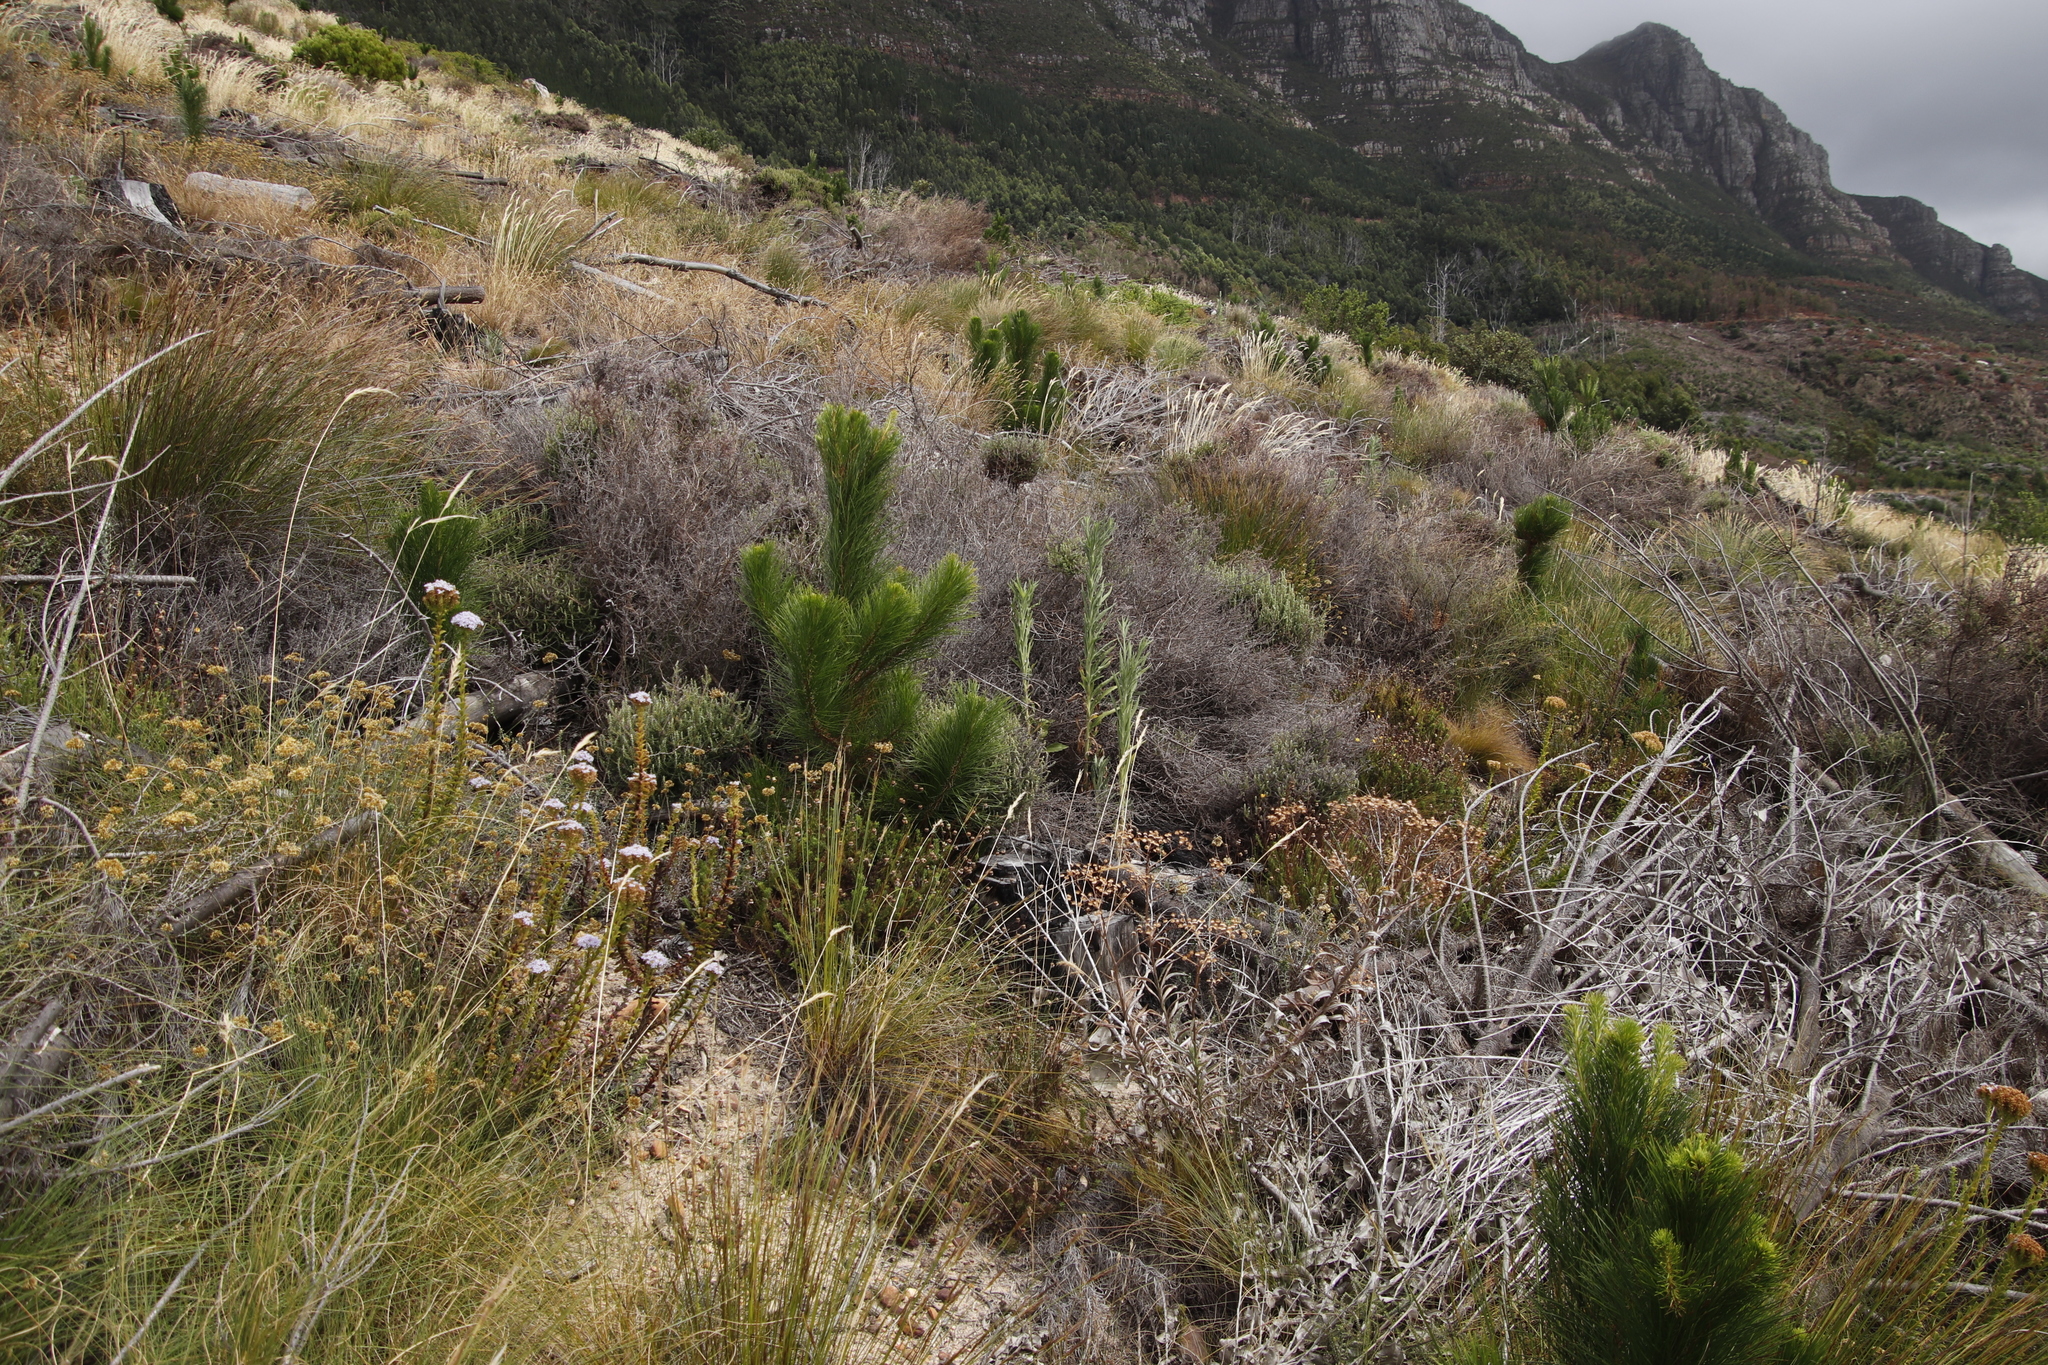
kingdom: Plantae
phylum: Tracheophyta
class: Pinopsida
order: Pinales
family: Pinaceae
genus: Pinus
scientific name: Pinus radiata
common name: Monterey pine
